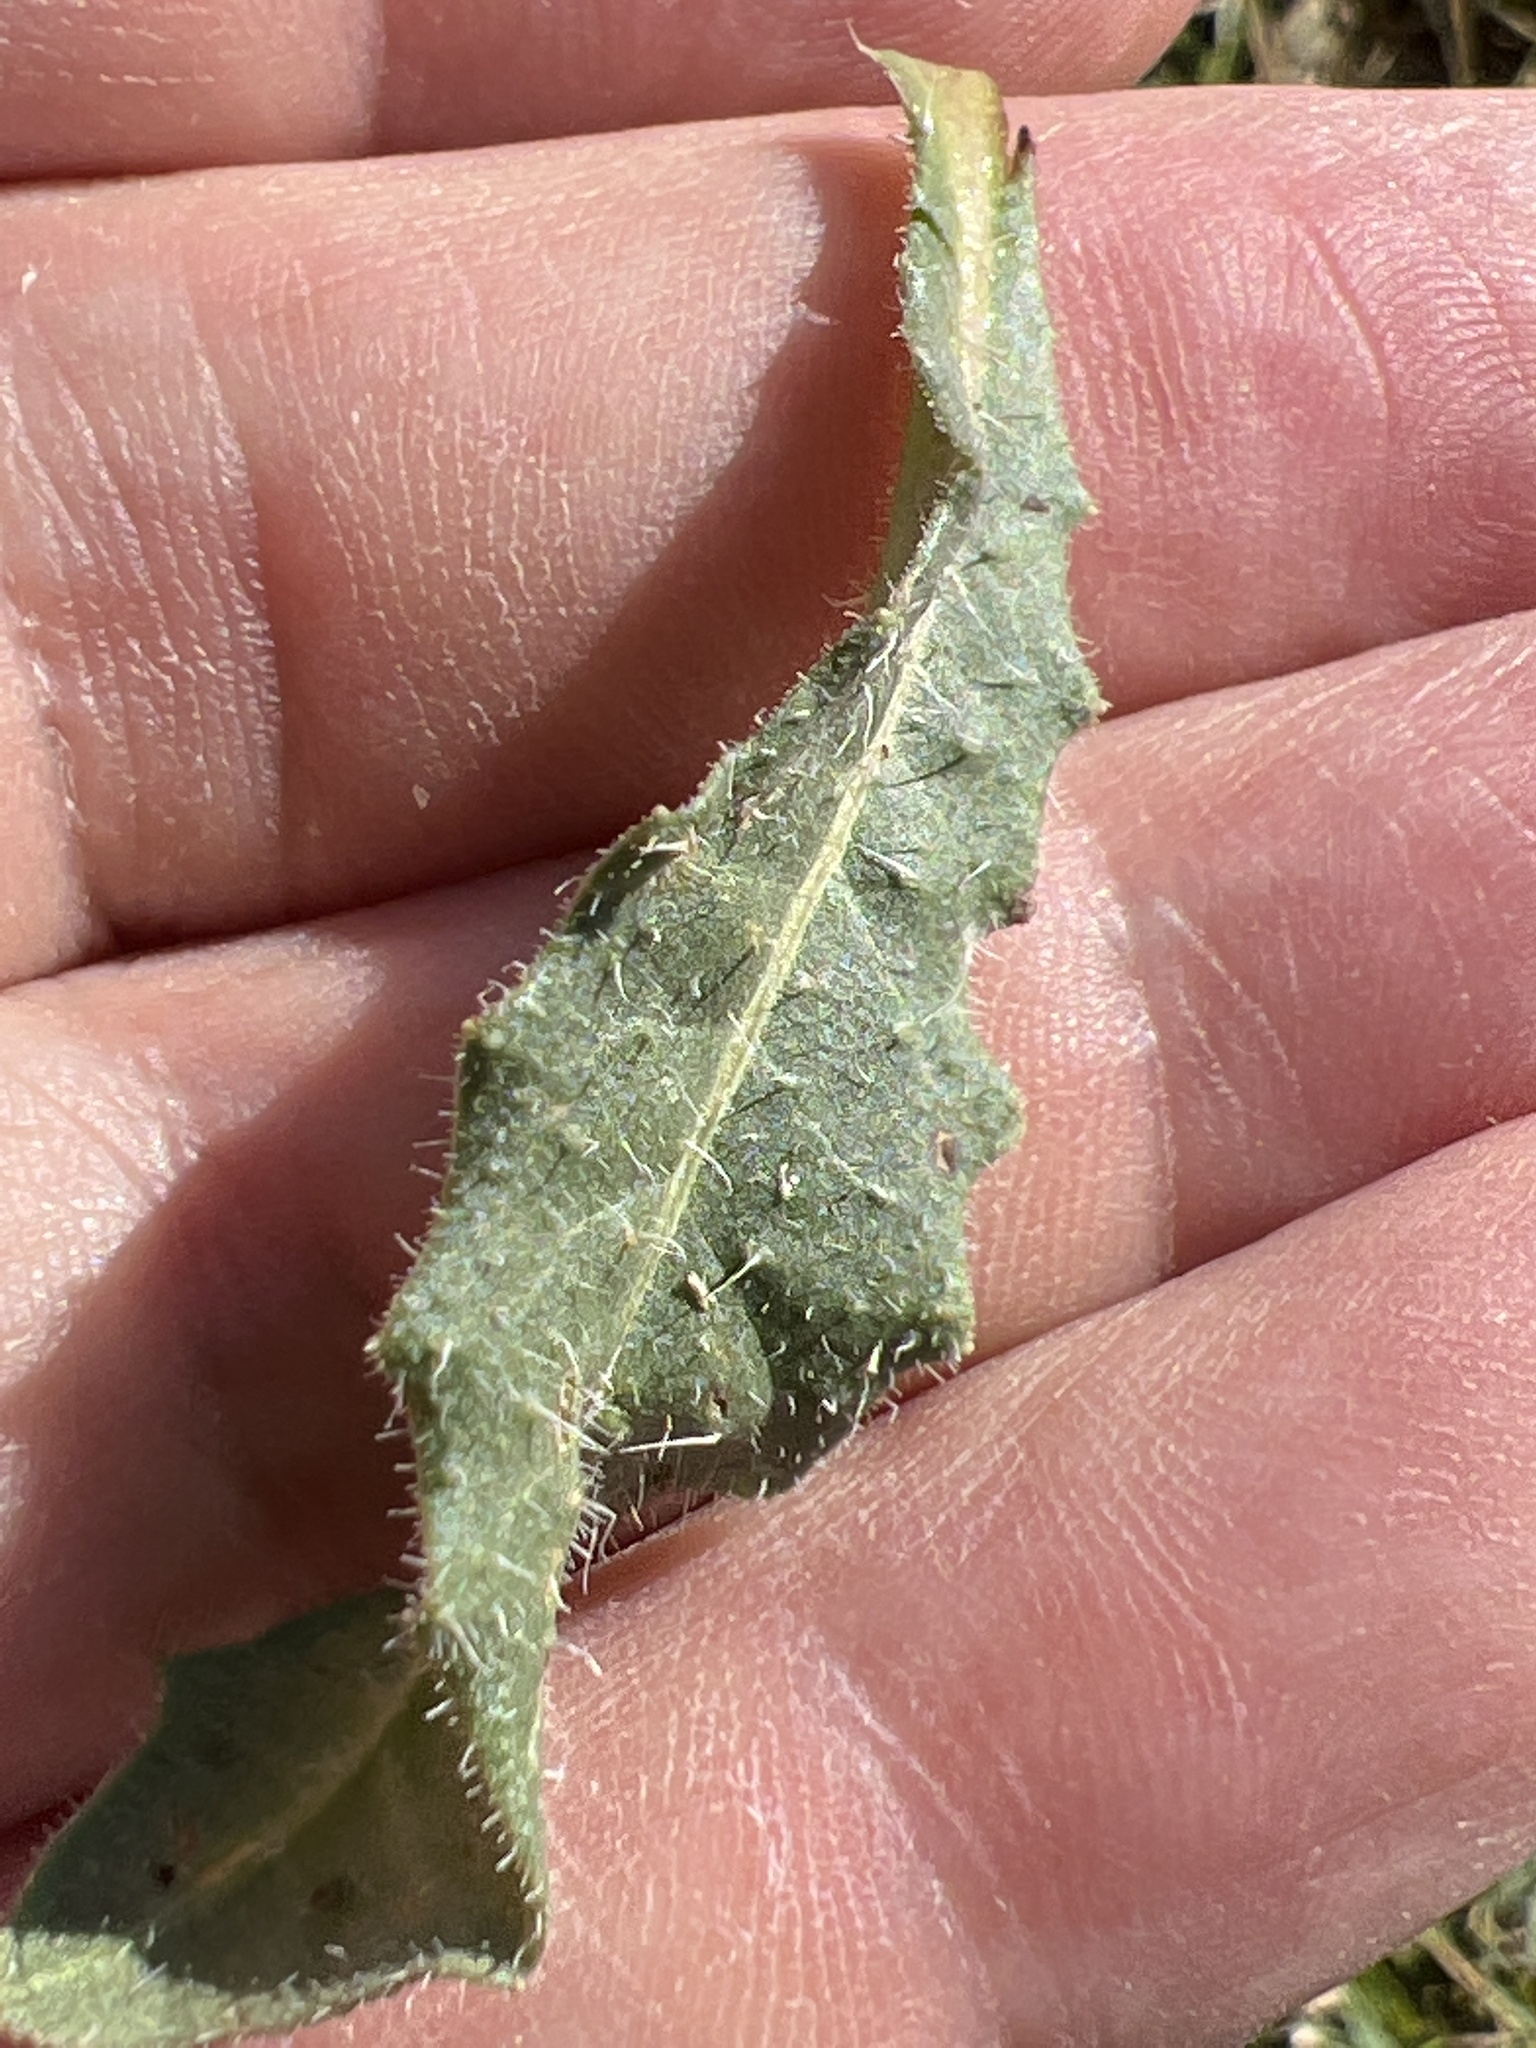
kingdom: Plantae
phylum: Tracheophyta
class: Magnoliopsida
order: Asterales
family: Asteraceae
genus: Helminthotheca
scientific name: Helminthotheca echioides
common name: Ox-tongue
